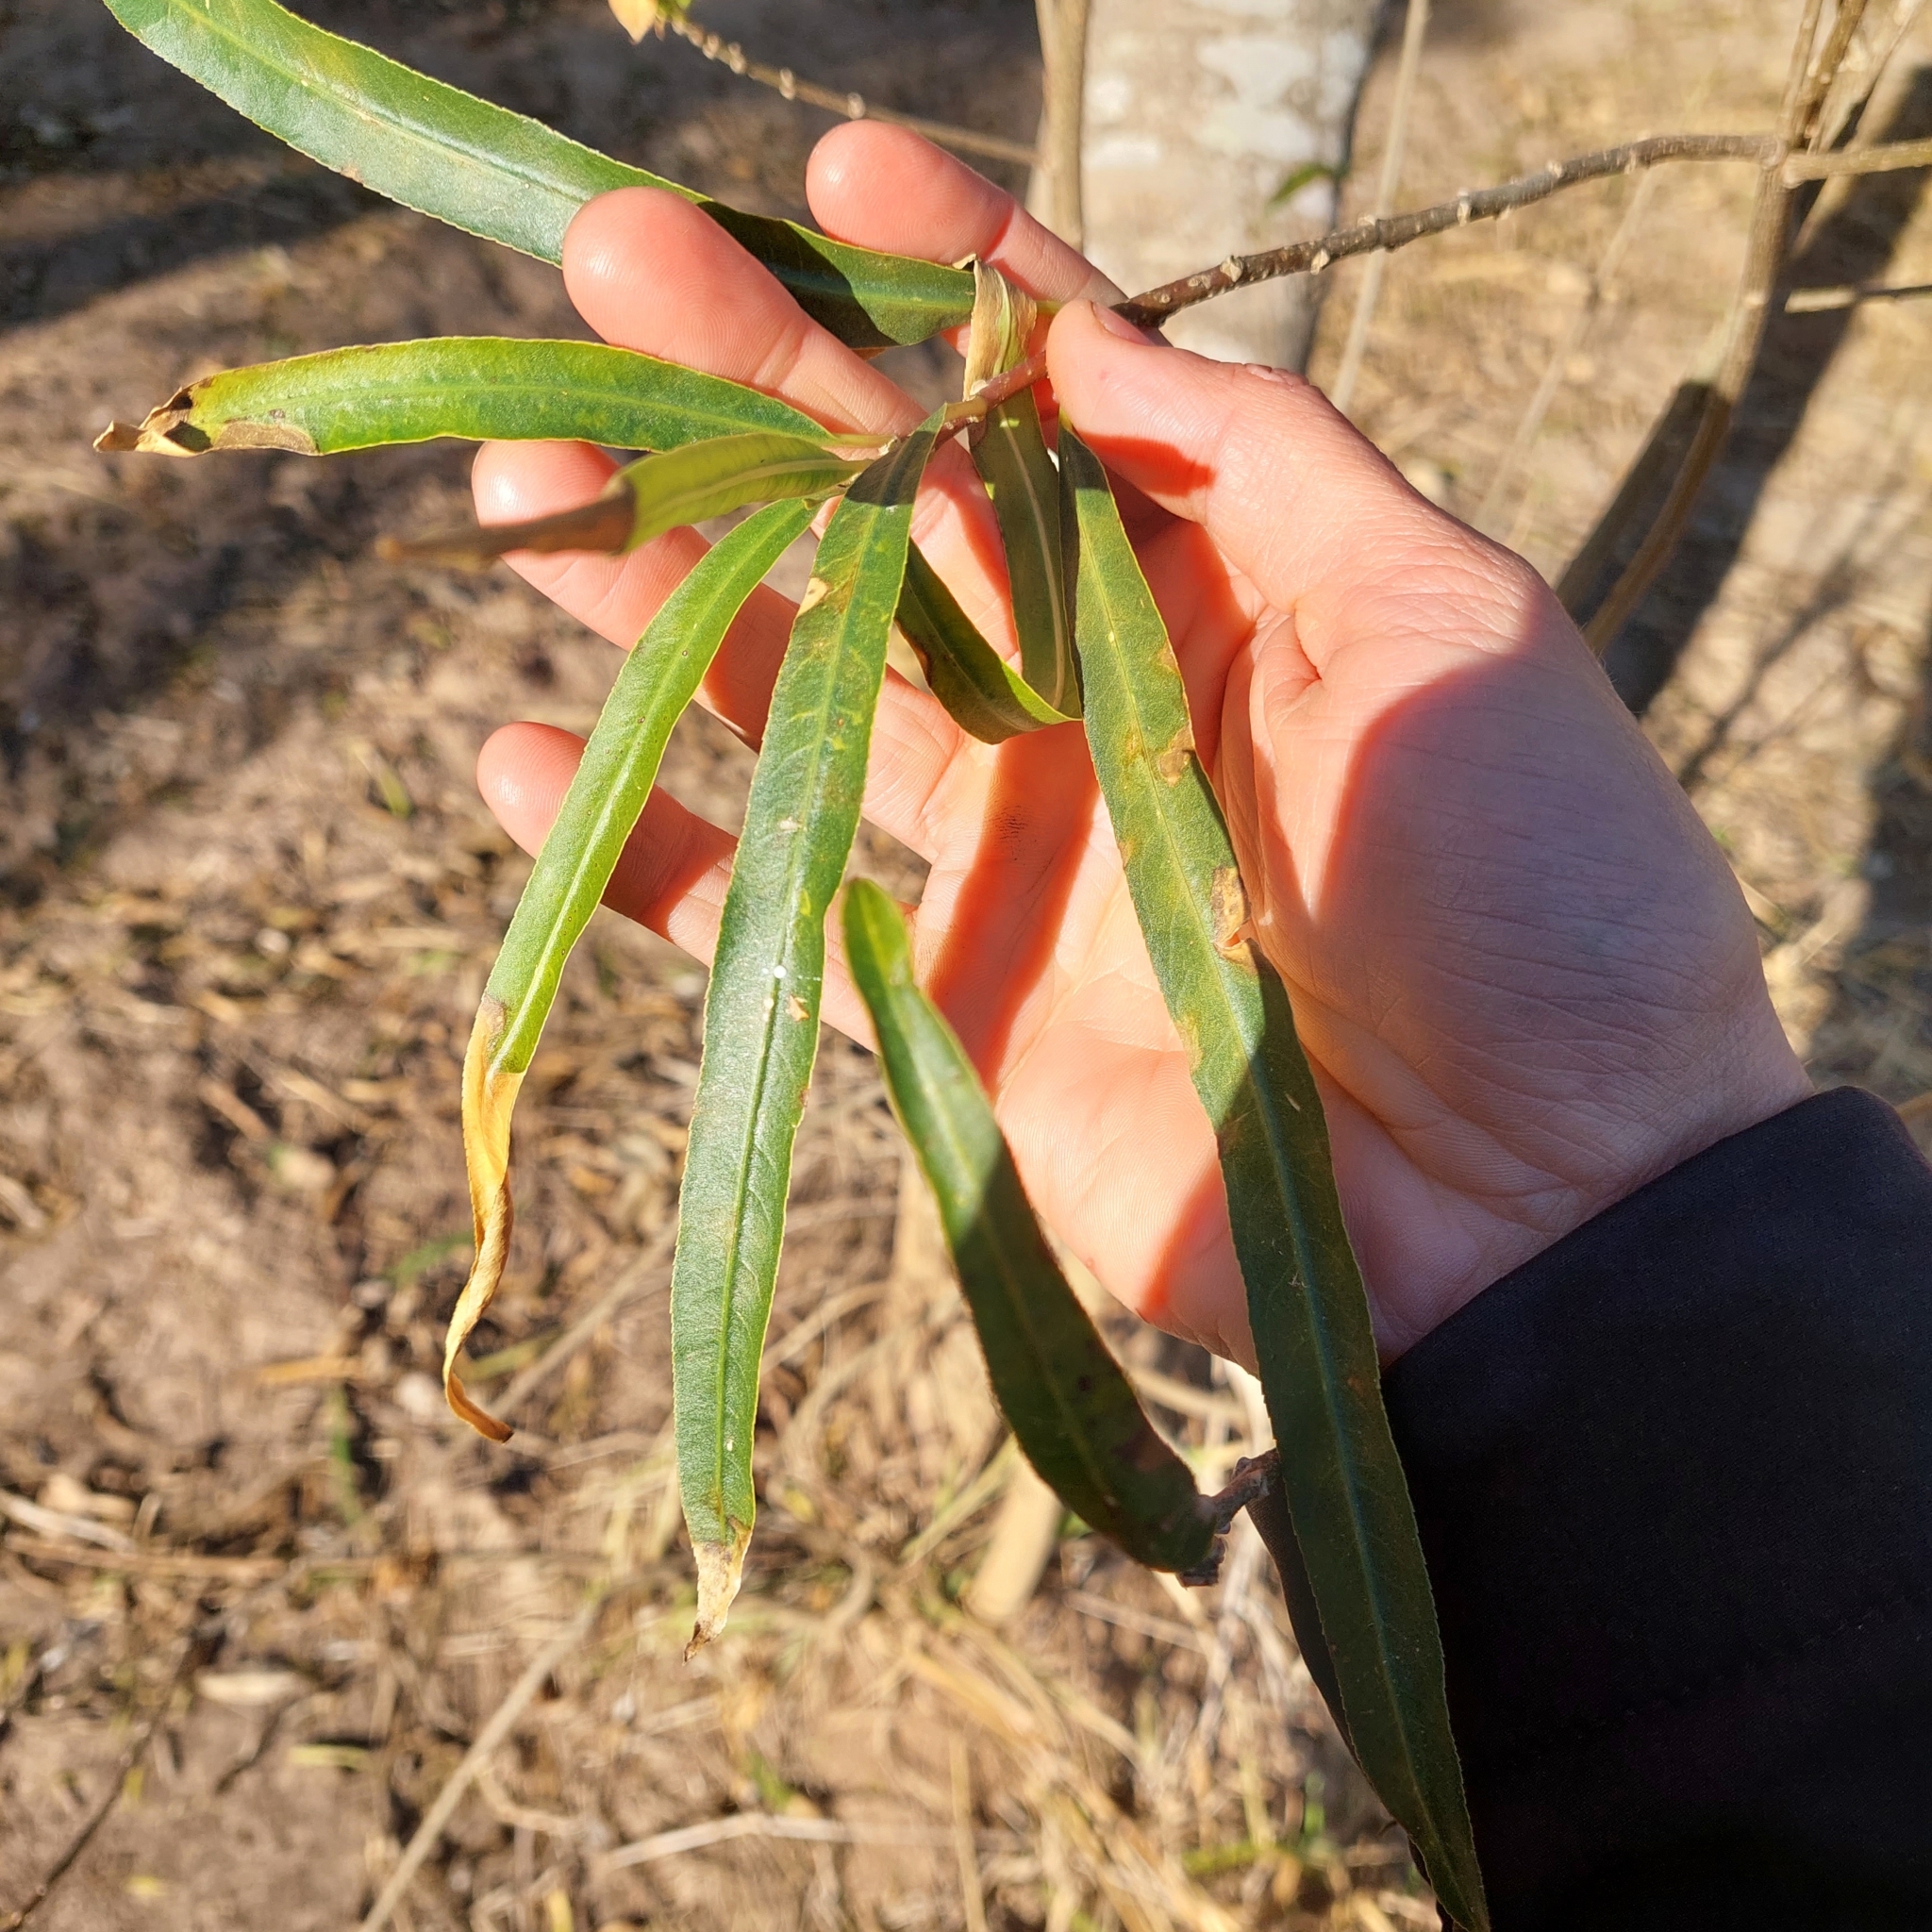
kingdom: Plantae
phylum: Tracheophyta
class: Magnoliopsida
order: Malpighiales
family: Euphorbiaceae
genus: Sapium
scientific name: Sapium haematospermum
